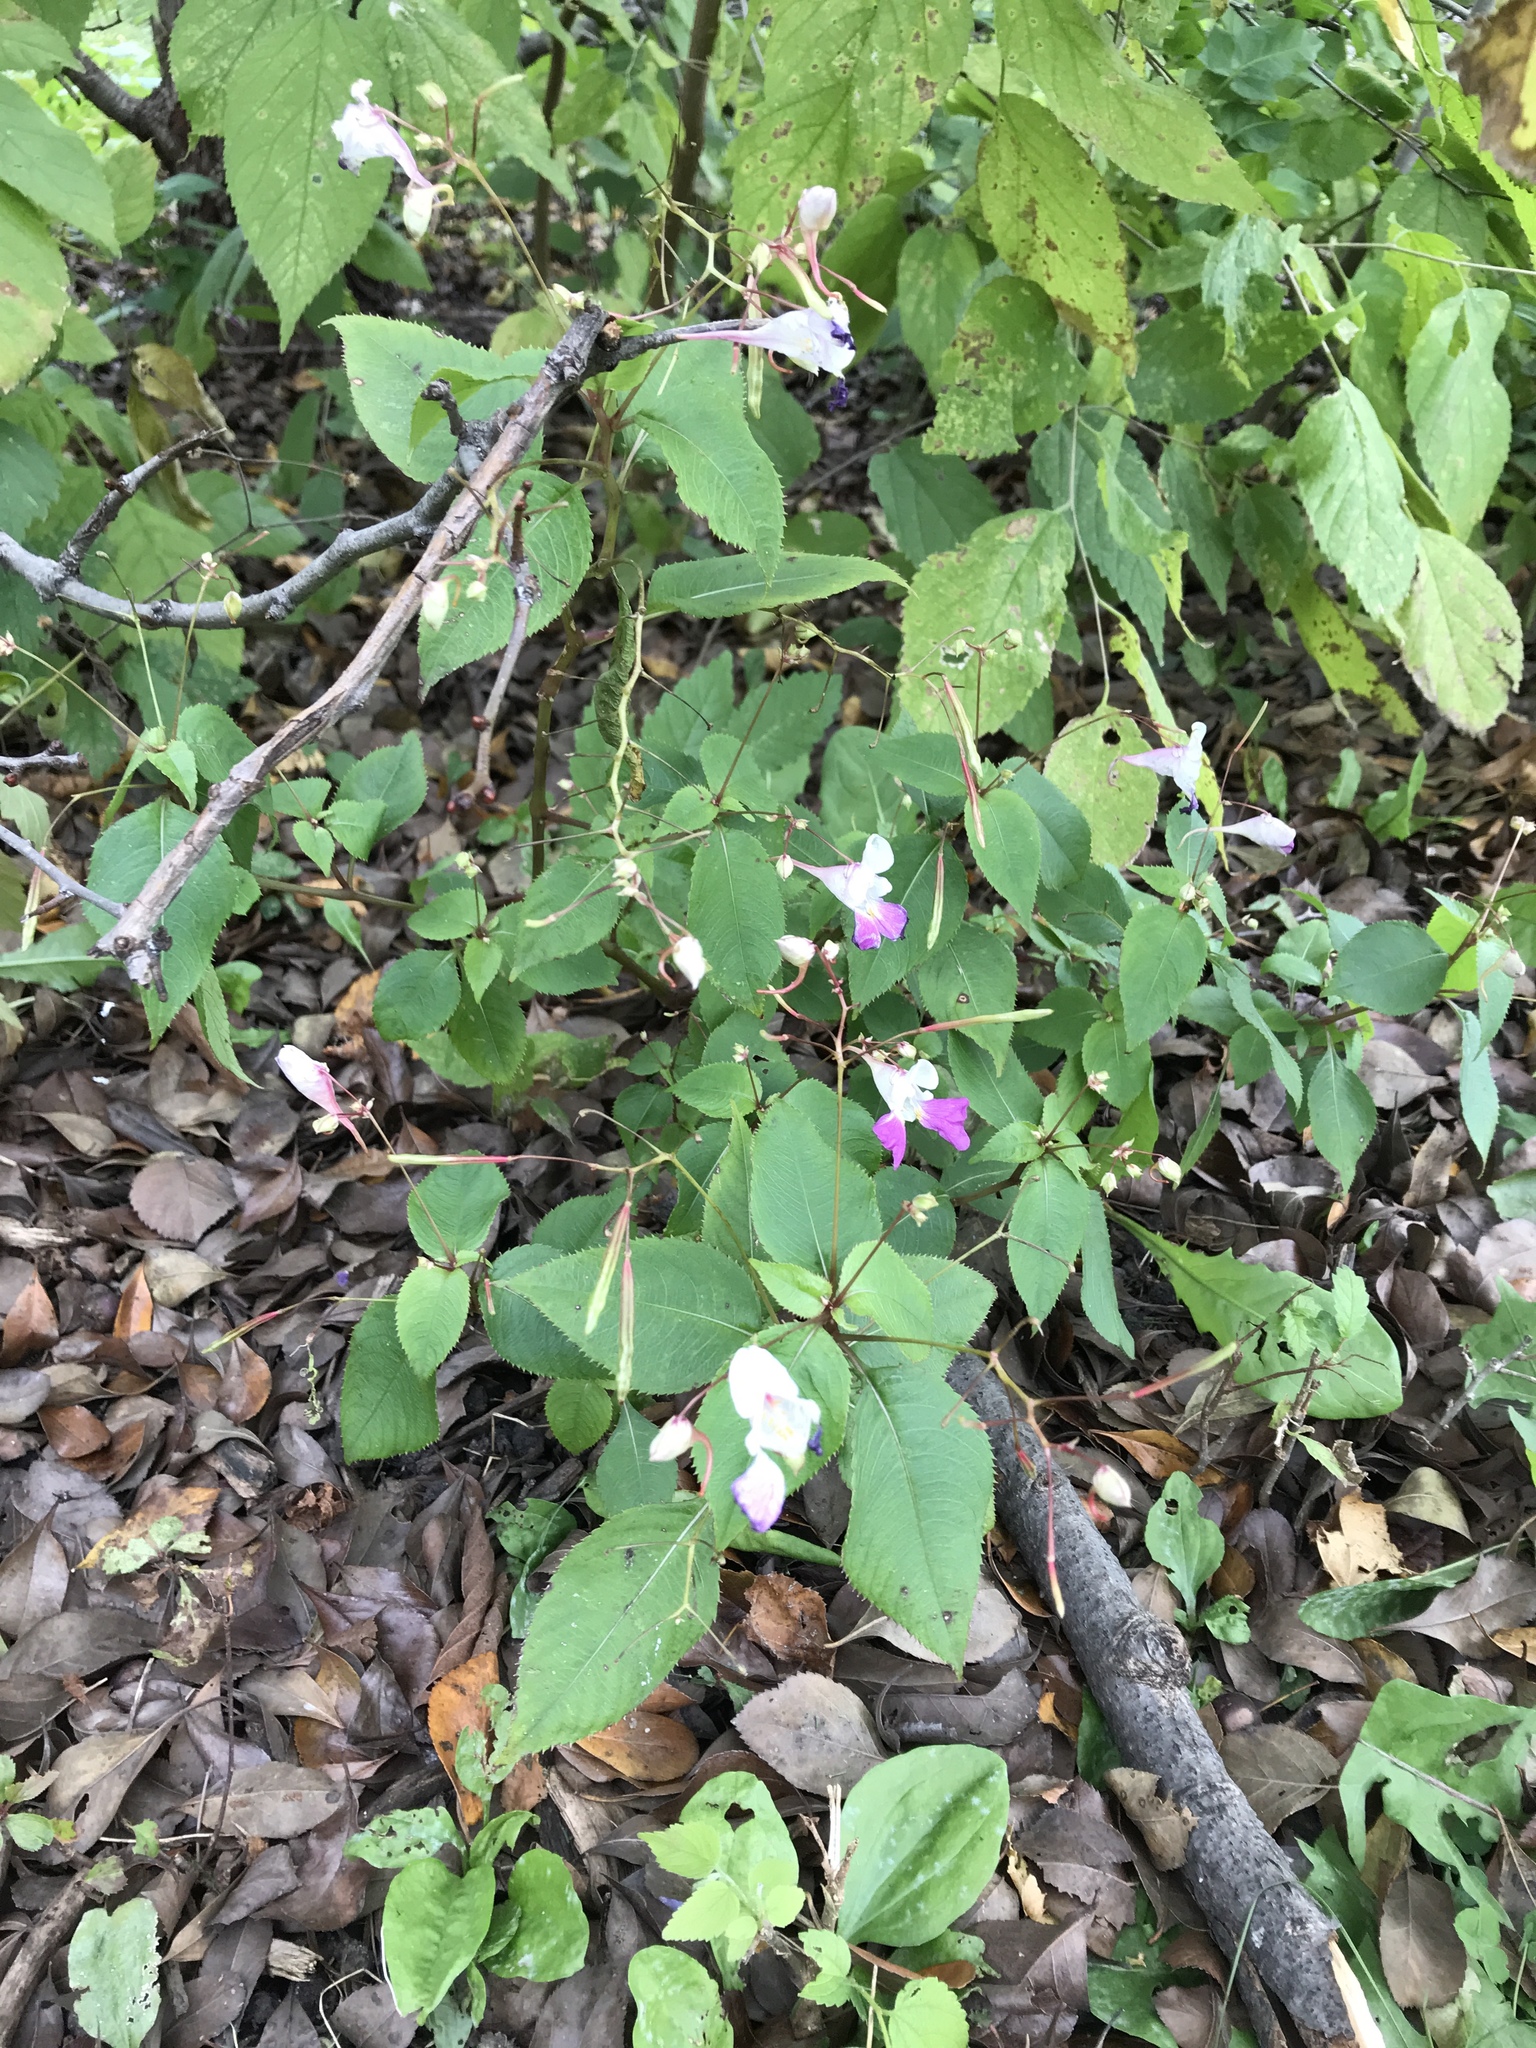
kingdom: Plantae
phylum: Tracheophyta
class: Magnoliopsida
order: Ericales
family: Balsaminaceae
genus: Impatiens
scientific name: Impatiens balfourii
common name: Balfour's touch-me-not
